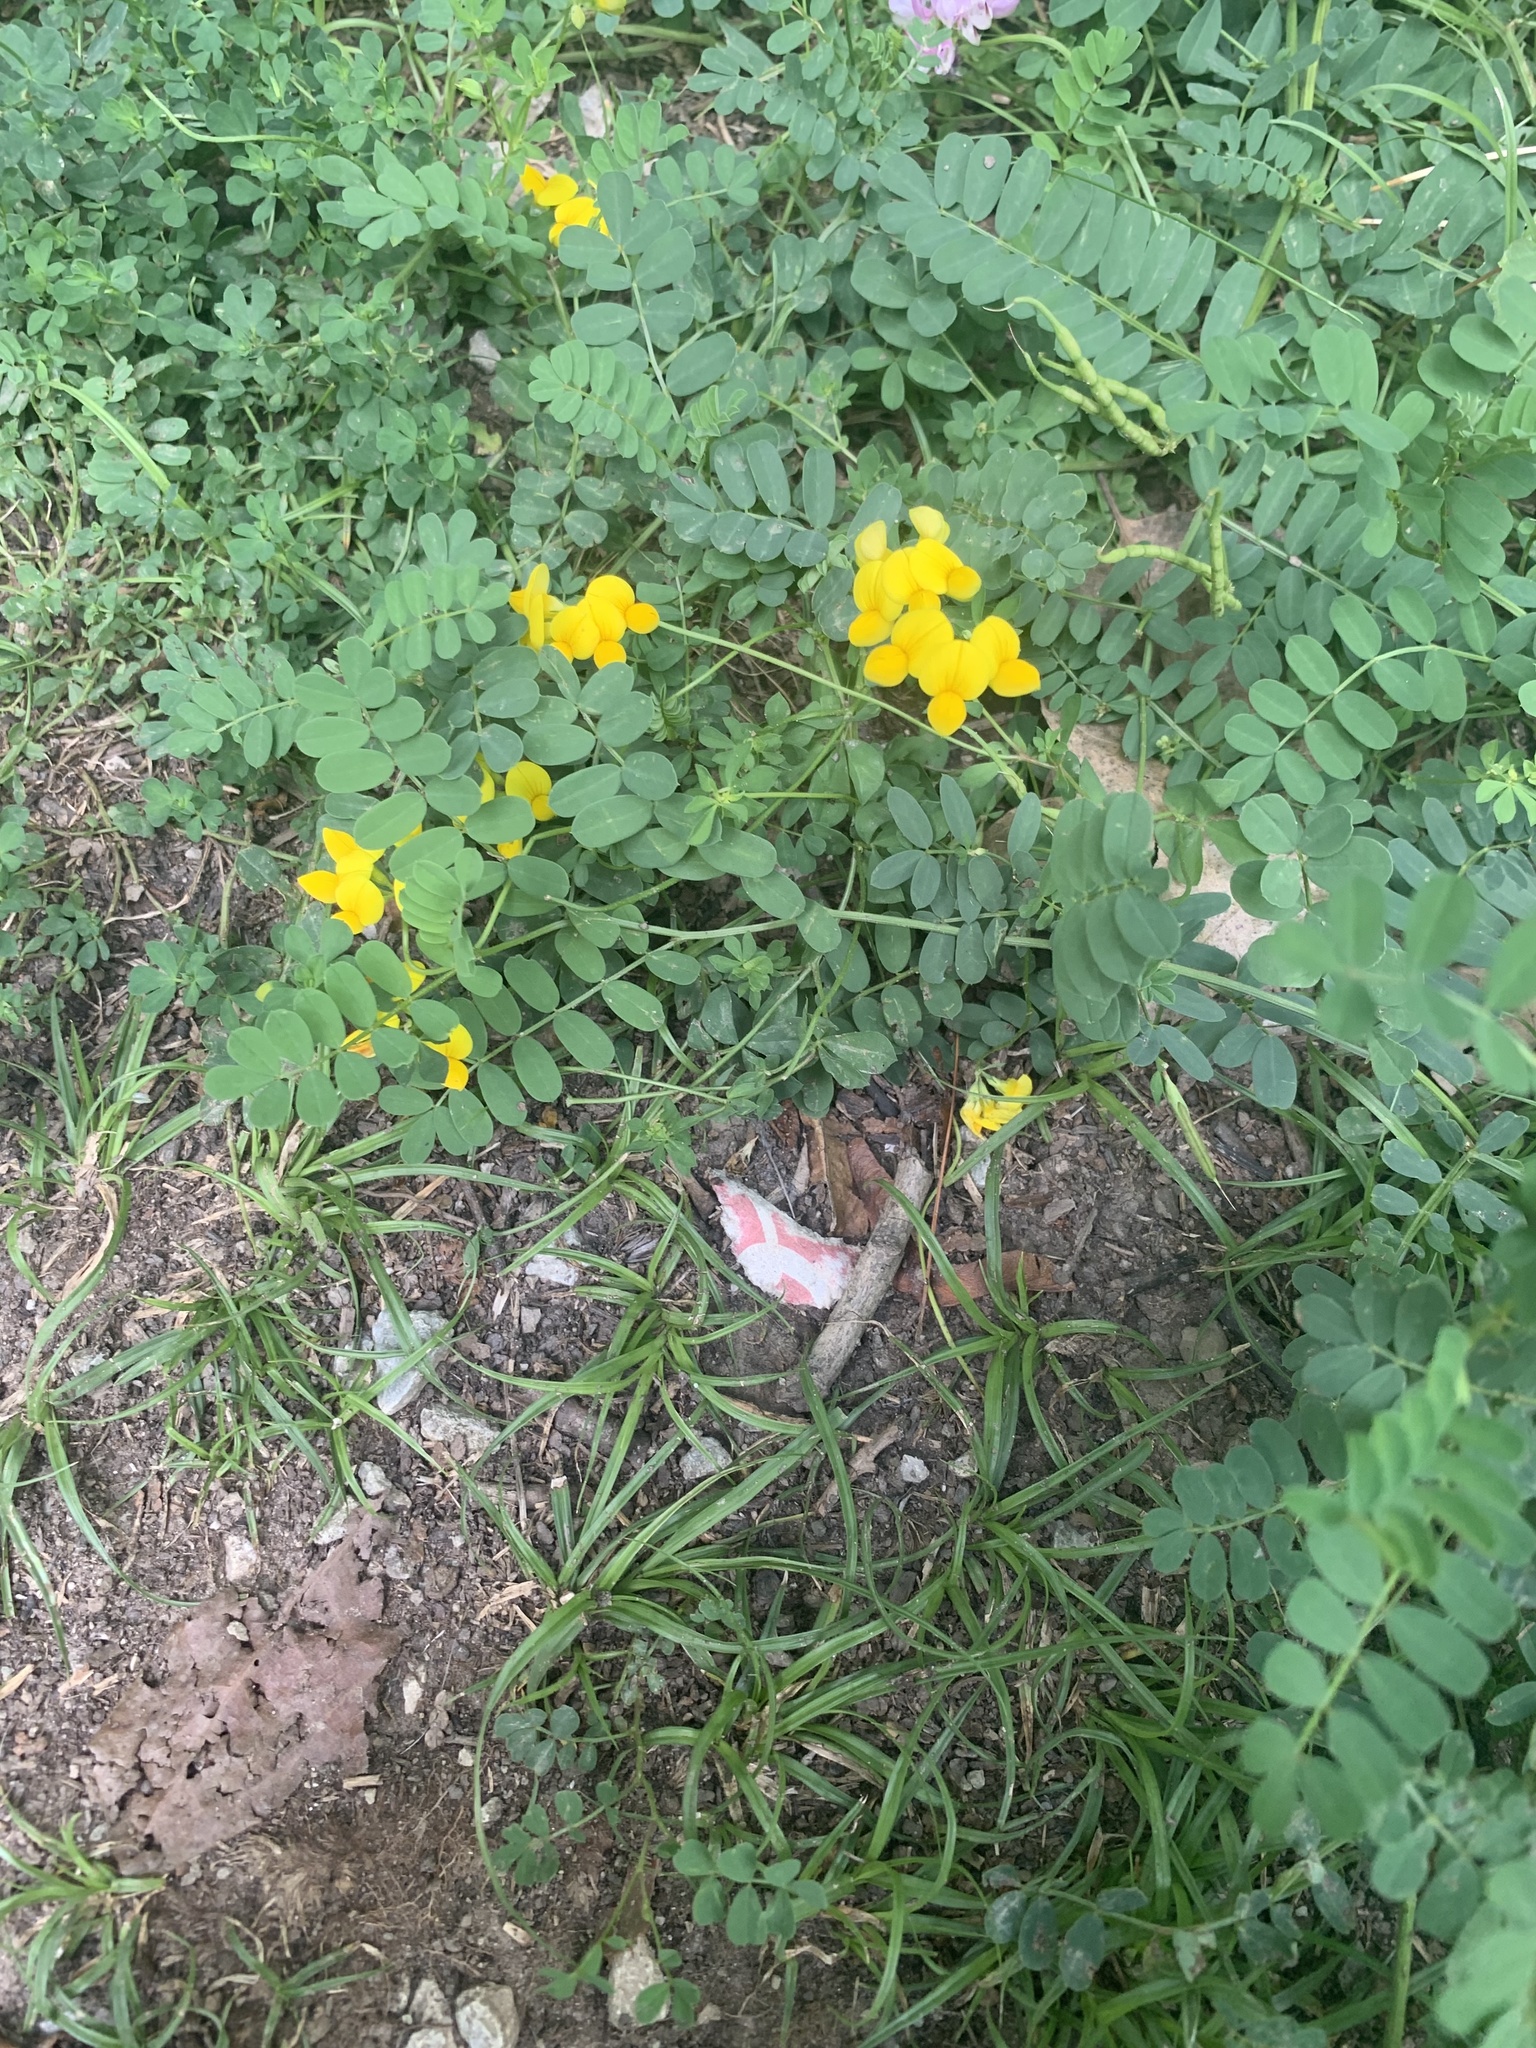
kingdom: Plantae
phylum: Tracheophyta
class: Magnoliopsida
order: Fabales
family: Fabaceae
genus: Lotus
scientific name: Lotus corniculatus
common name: Common bird's-foot-trefoil
